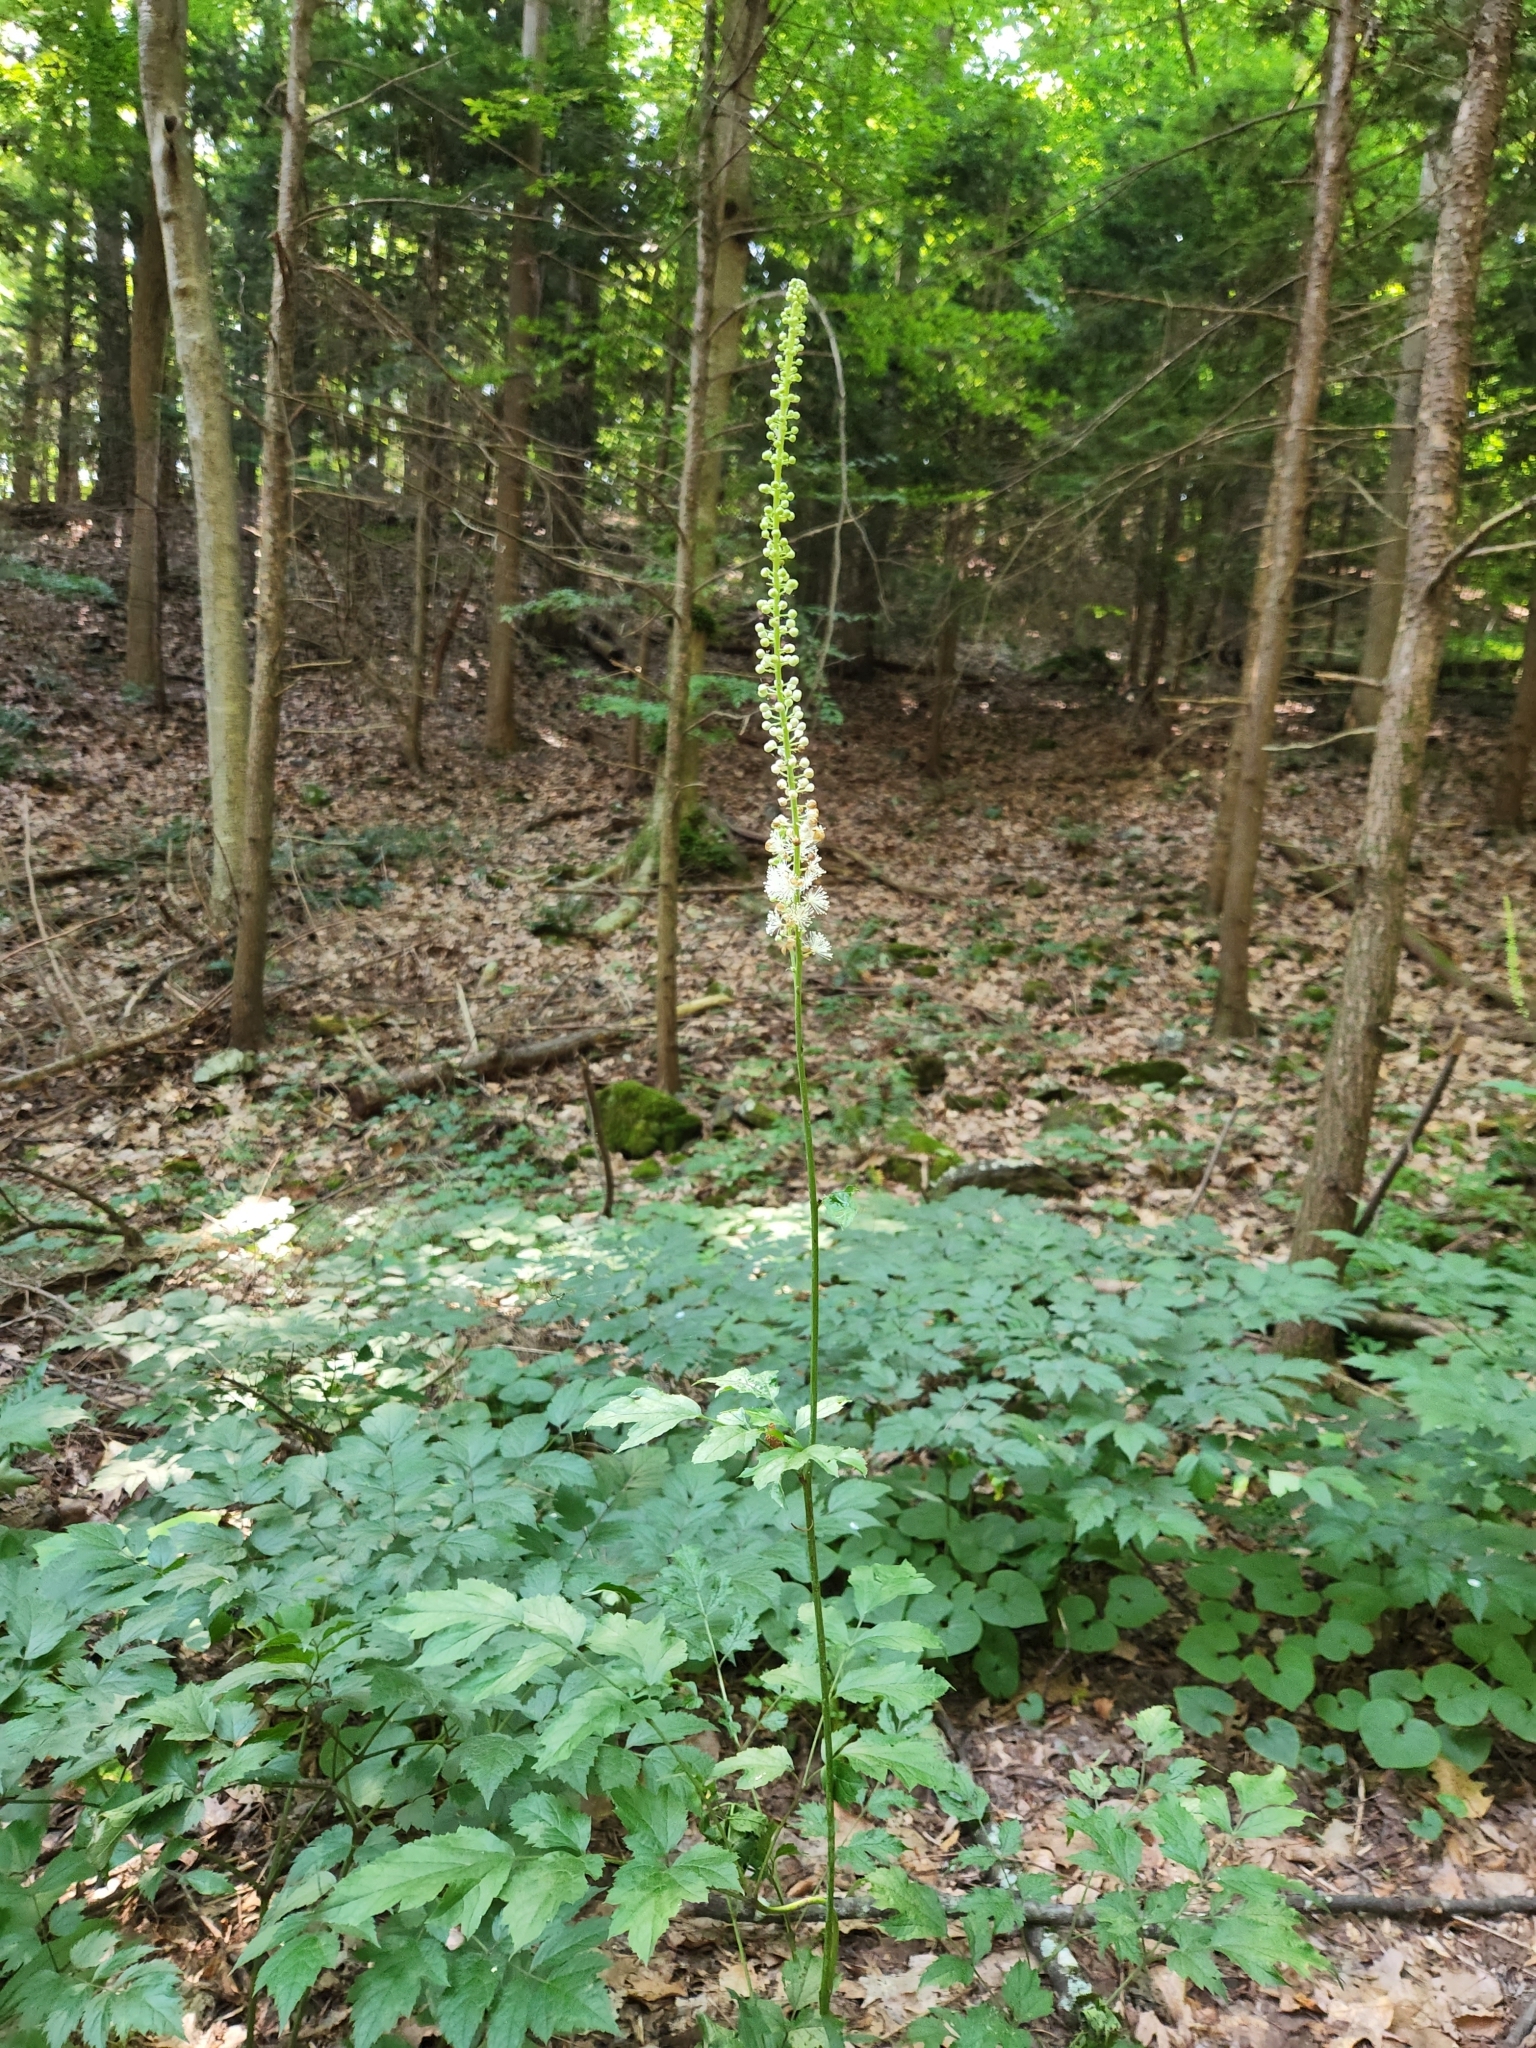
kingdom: Plantae
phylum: Tracheophyta
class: Magnoliopsida
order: Ranunculales
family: Ranunculaceae
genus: Actaea
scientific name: Actaea racemosa
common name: Black cohosh
